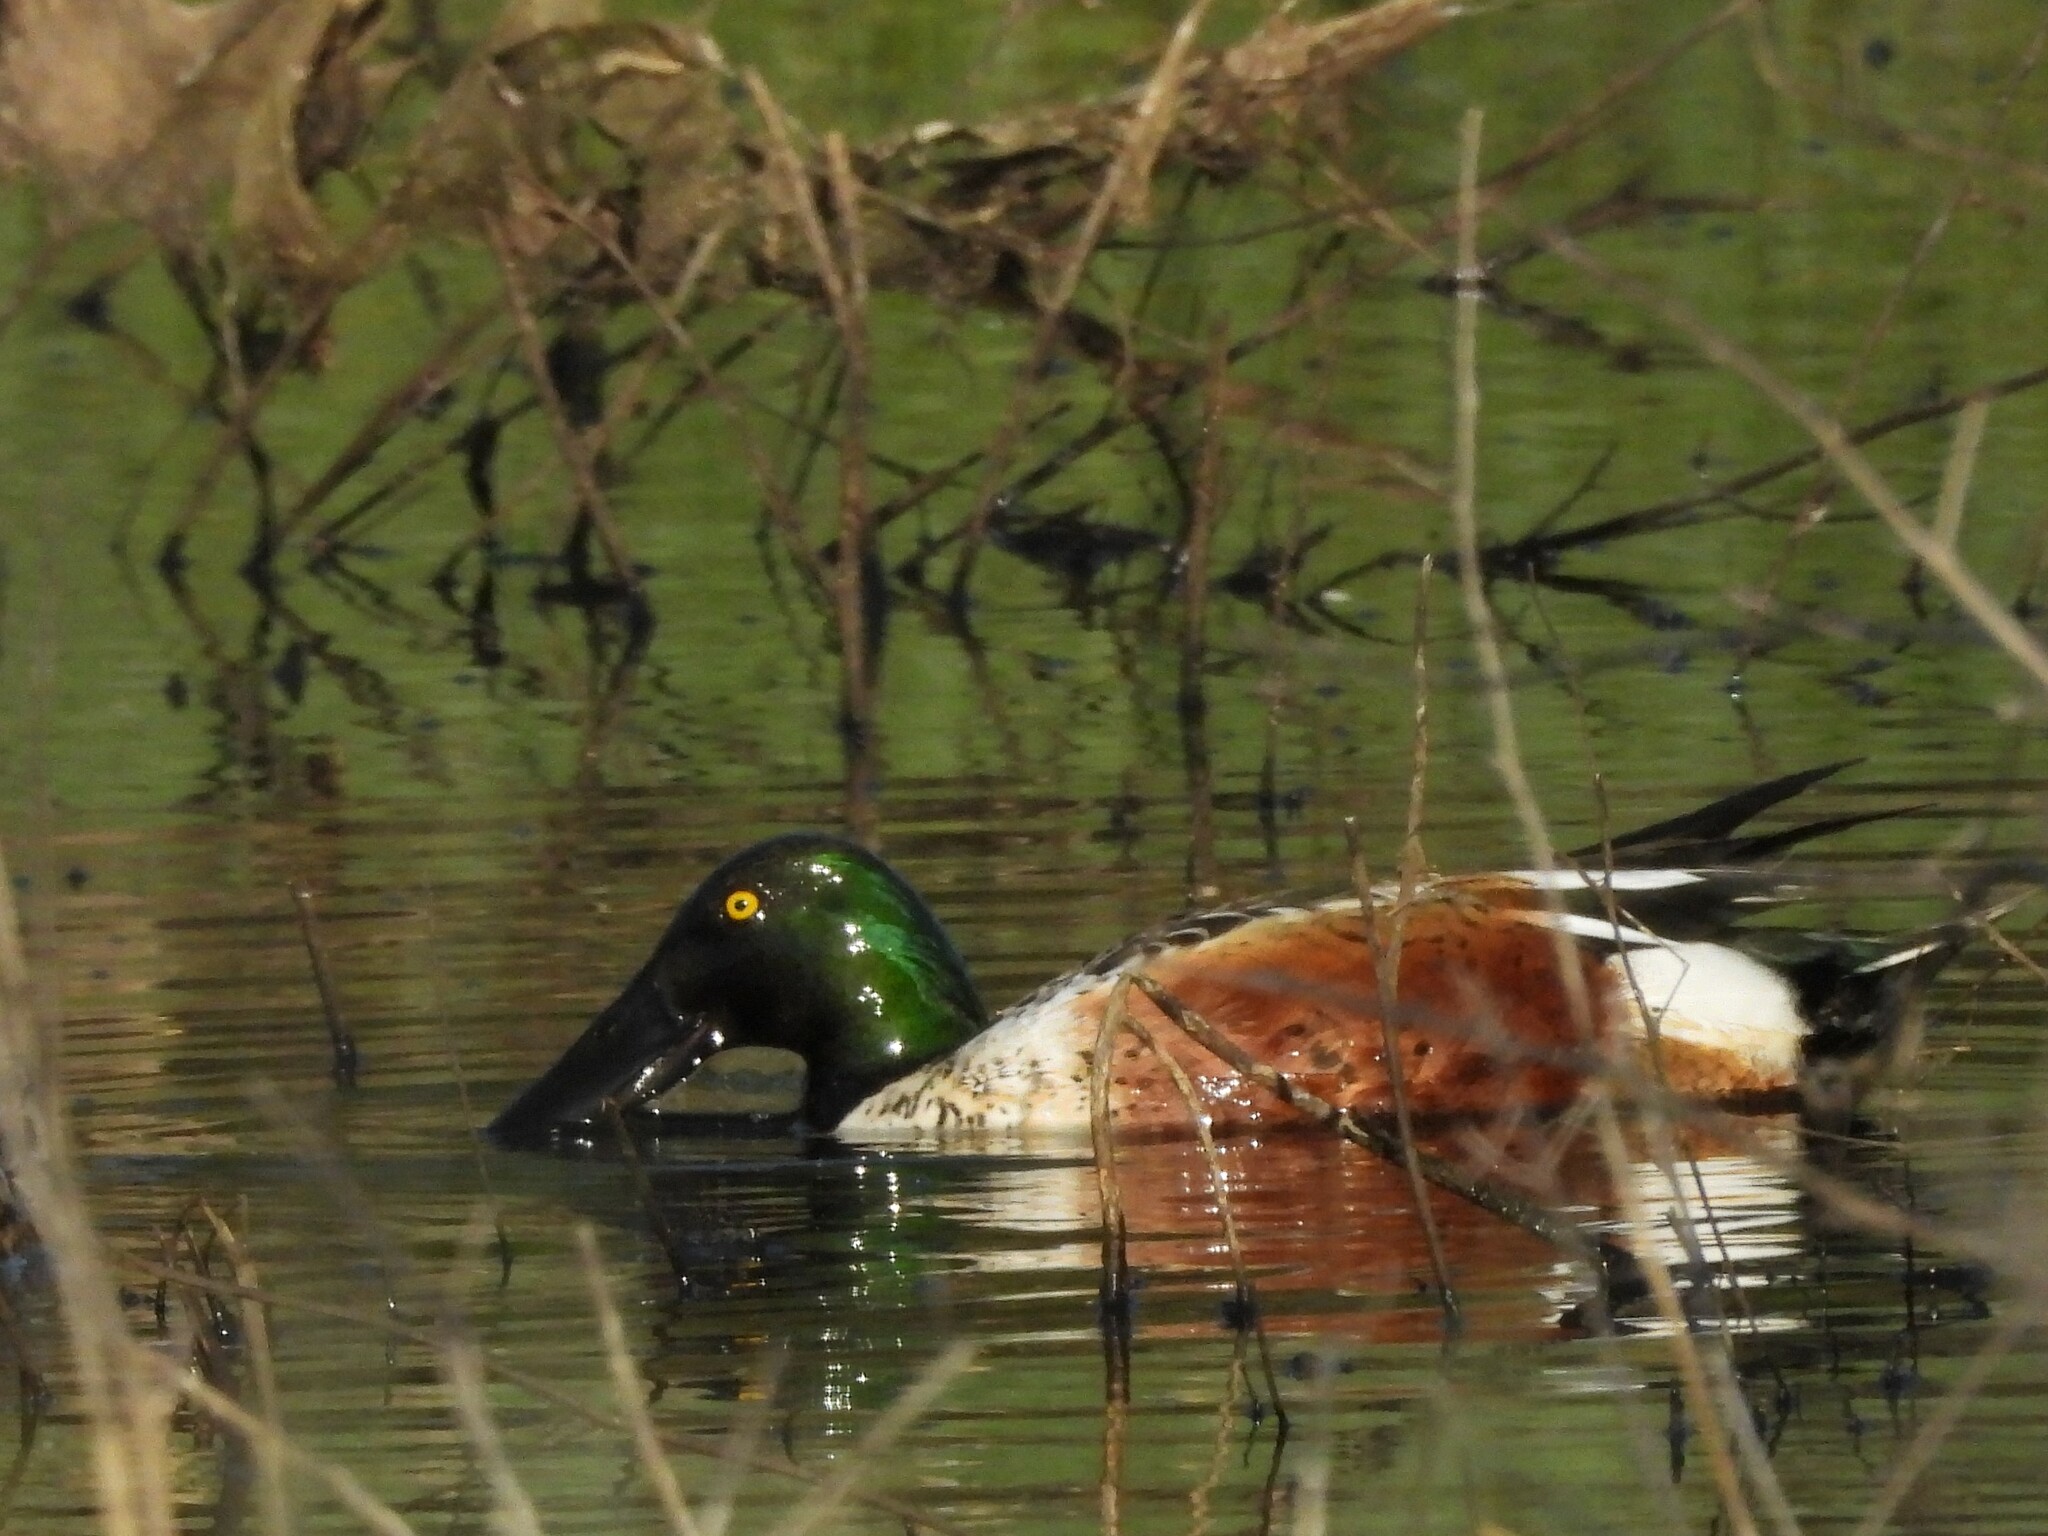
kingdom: Animalia
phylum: Chordata
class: Aves
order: Anseriformes
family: Anatidae
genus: Spatula
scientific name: Spatula clypeata
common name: Northern shoveler
